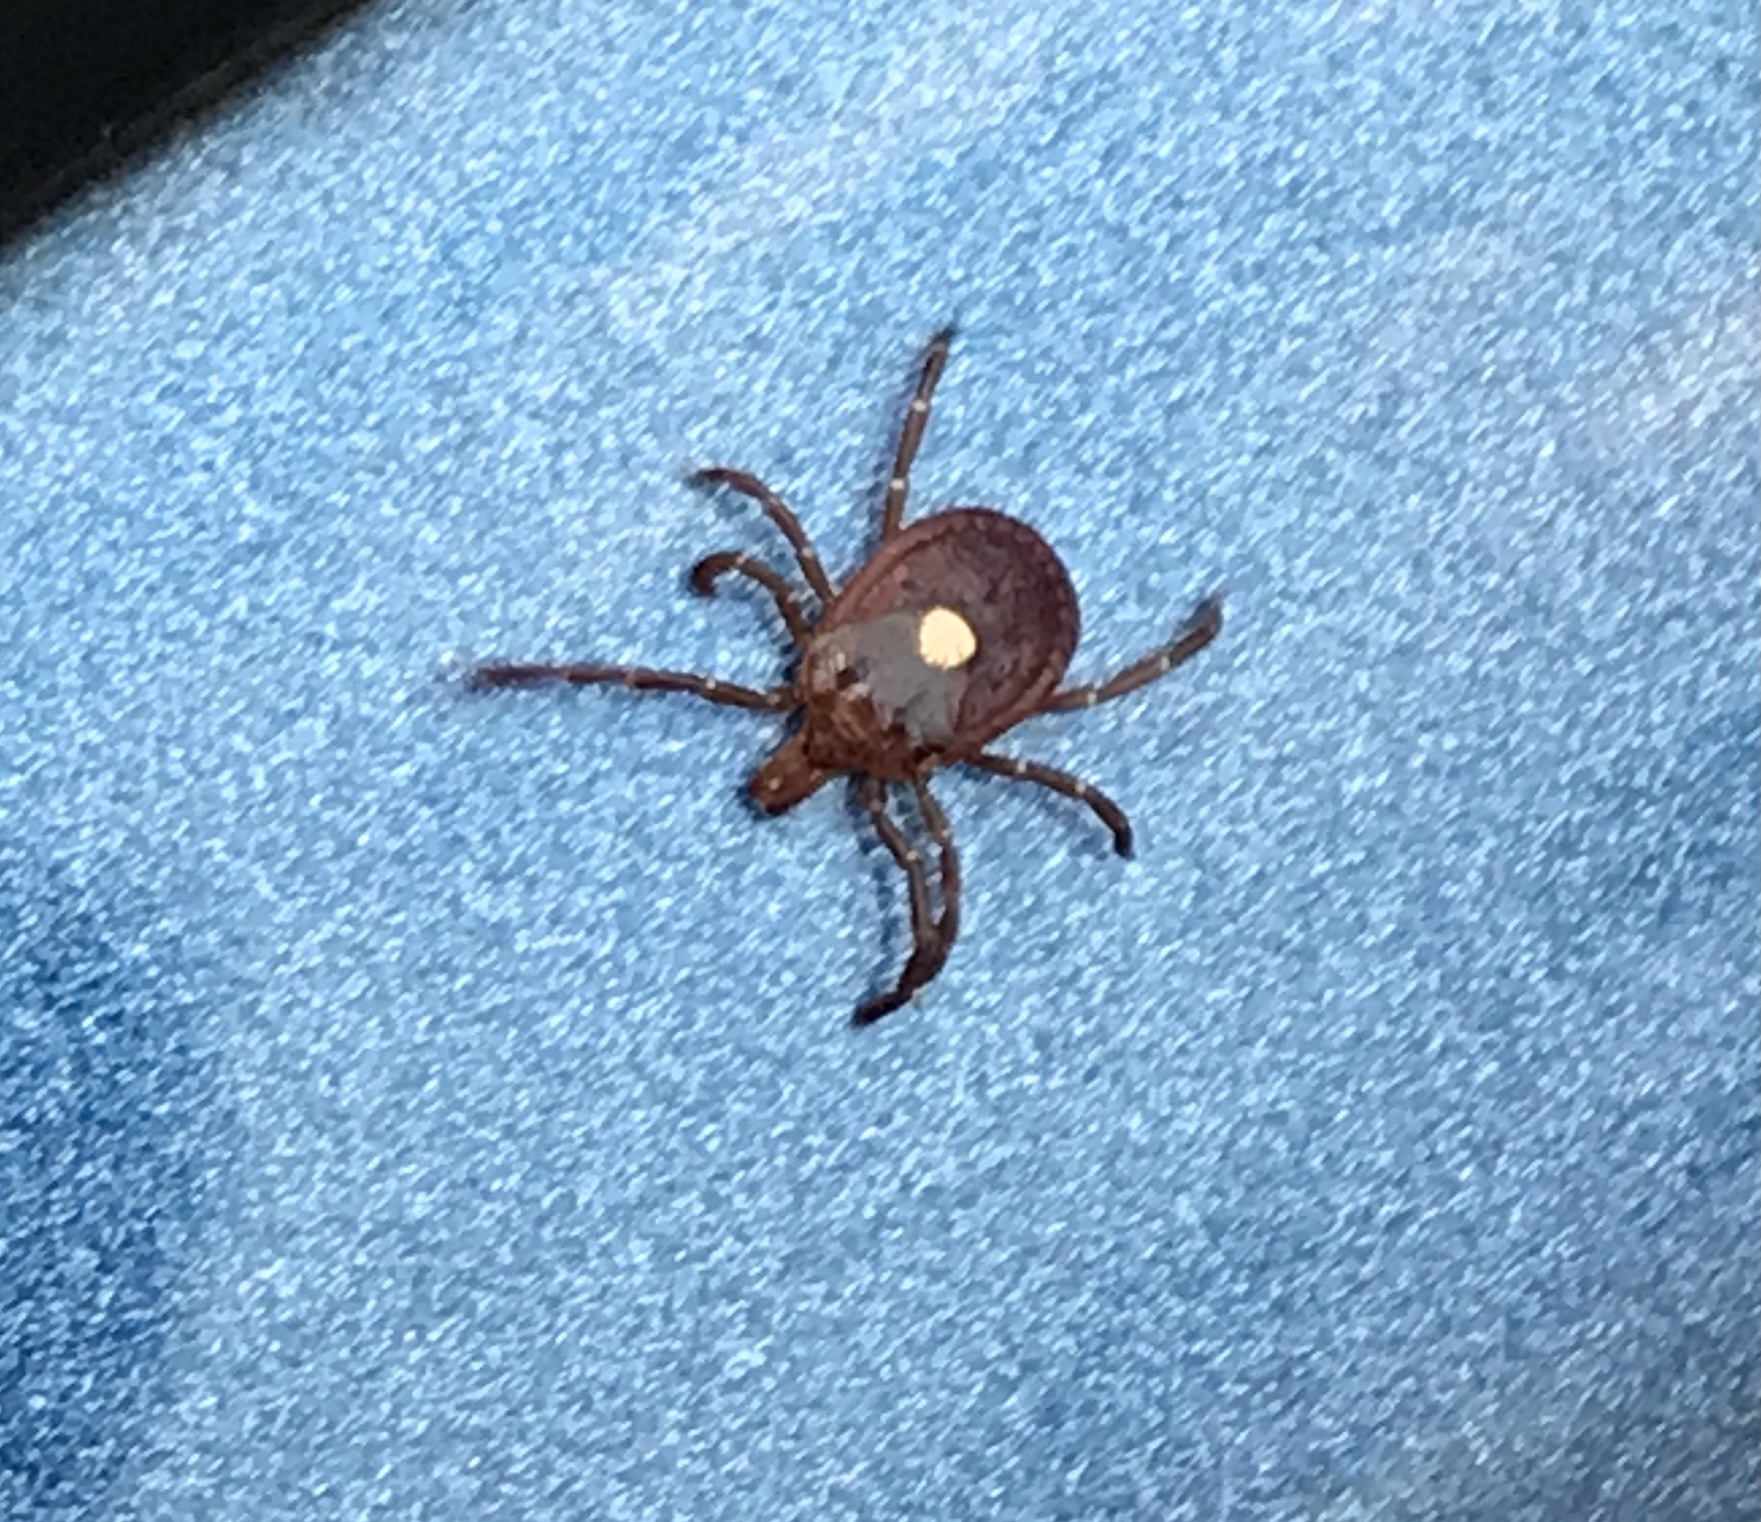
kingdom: Animalia
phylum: Arthropoda
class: Arachnida
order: Ixodida
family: Ixodidae
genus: Amblyomma
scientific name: Amblyomma americanum
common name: Lone star tick
